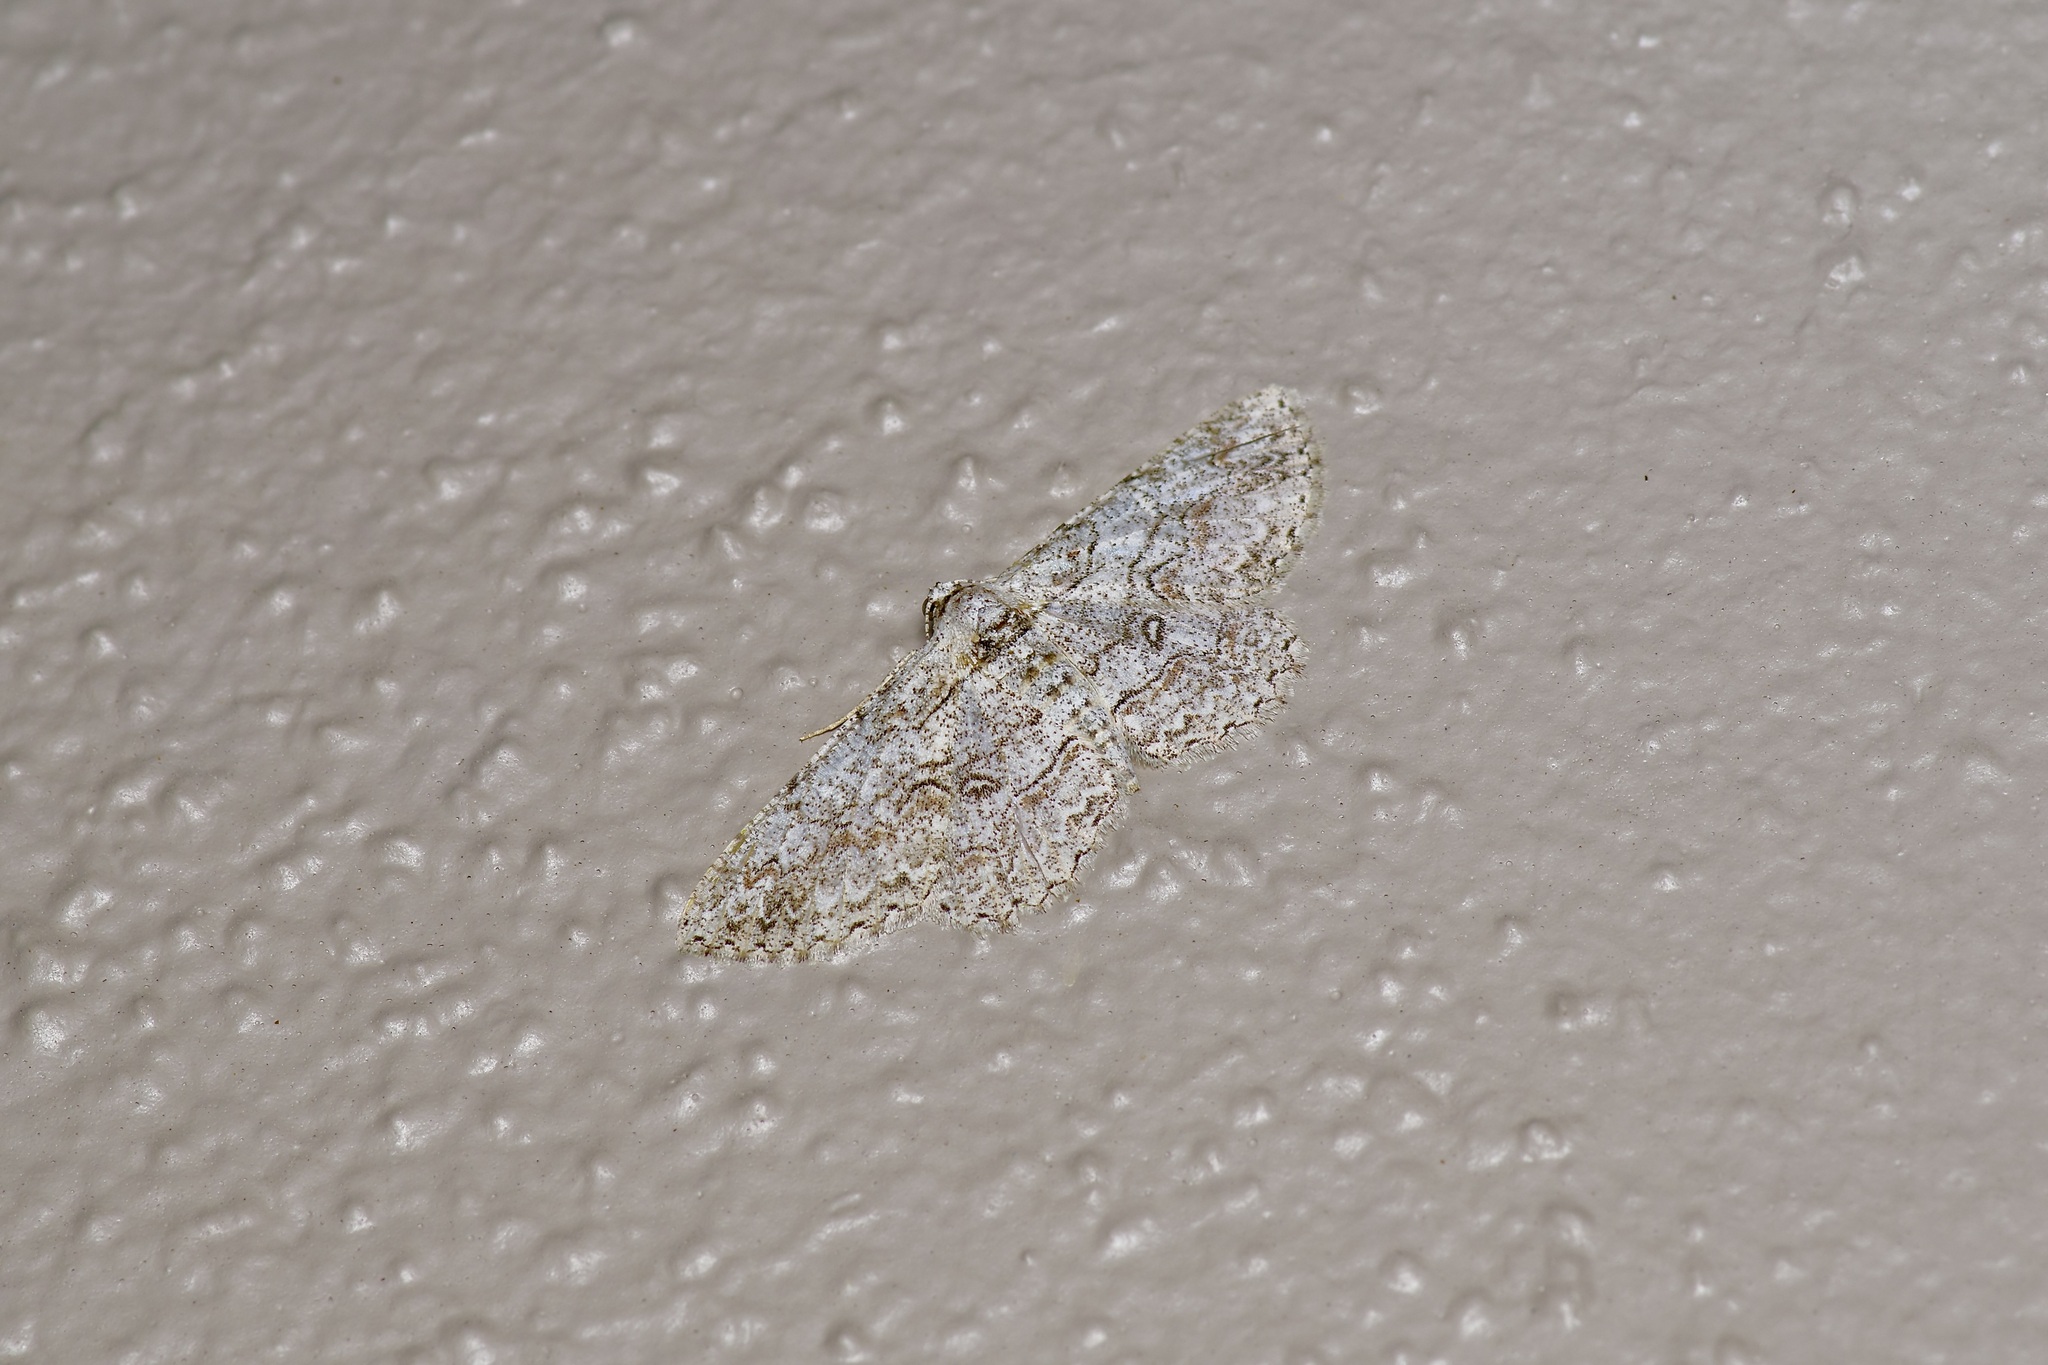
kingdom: Animalia
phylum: Arthropoda
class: Insecta
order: Lepidoptera
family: Geometridae
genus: Iridopsis
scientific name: Iridopsis defectaria
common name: Brown-shaded gray
